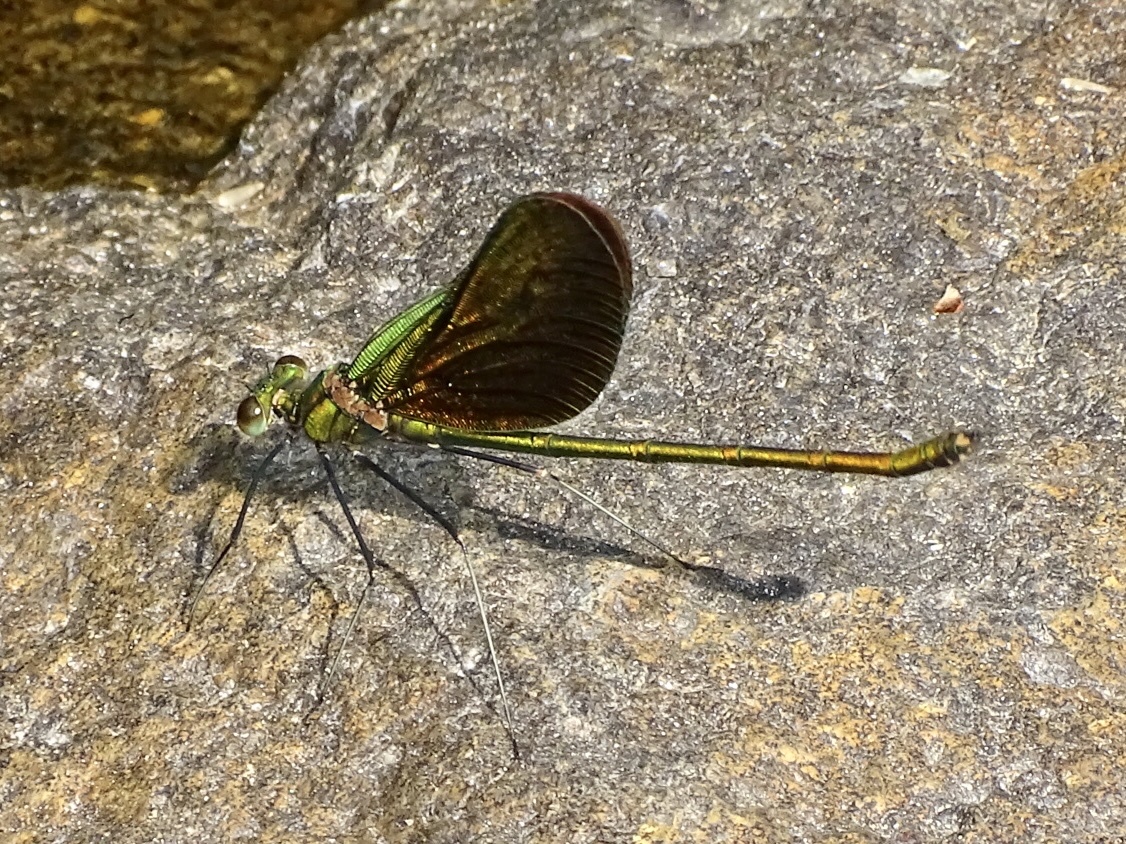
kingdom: Animalia
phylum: Arthropoda
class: Insecta
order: Odonata
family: Calopterygidae
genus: Neurobasis
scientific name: Neurobasis chinensis
